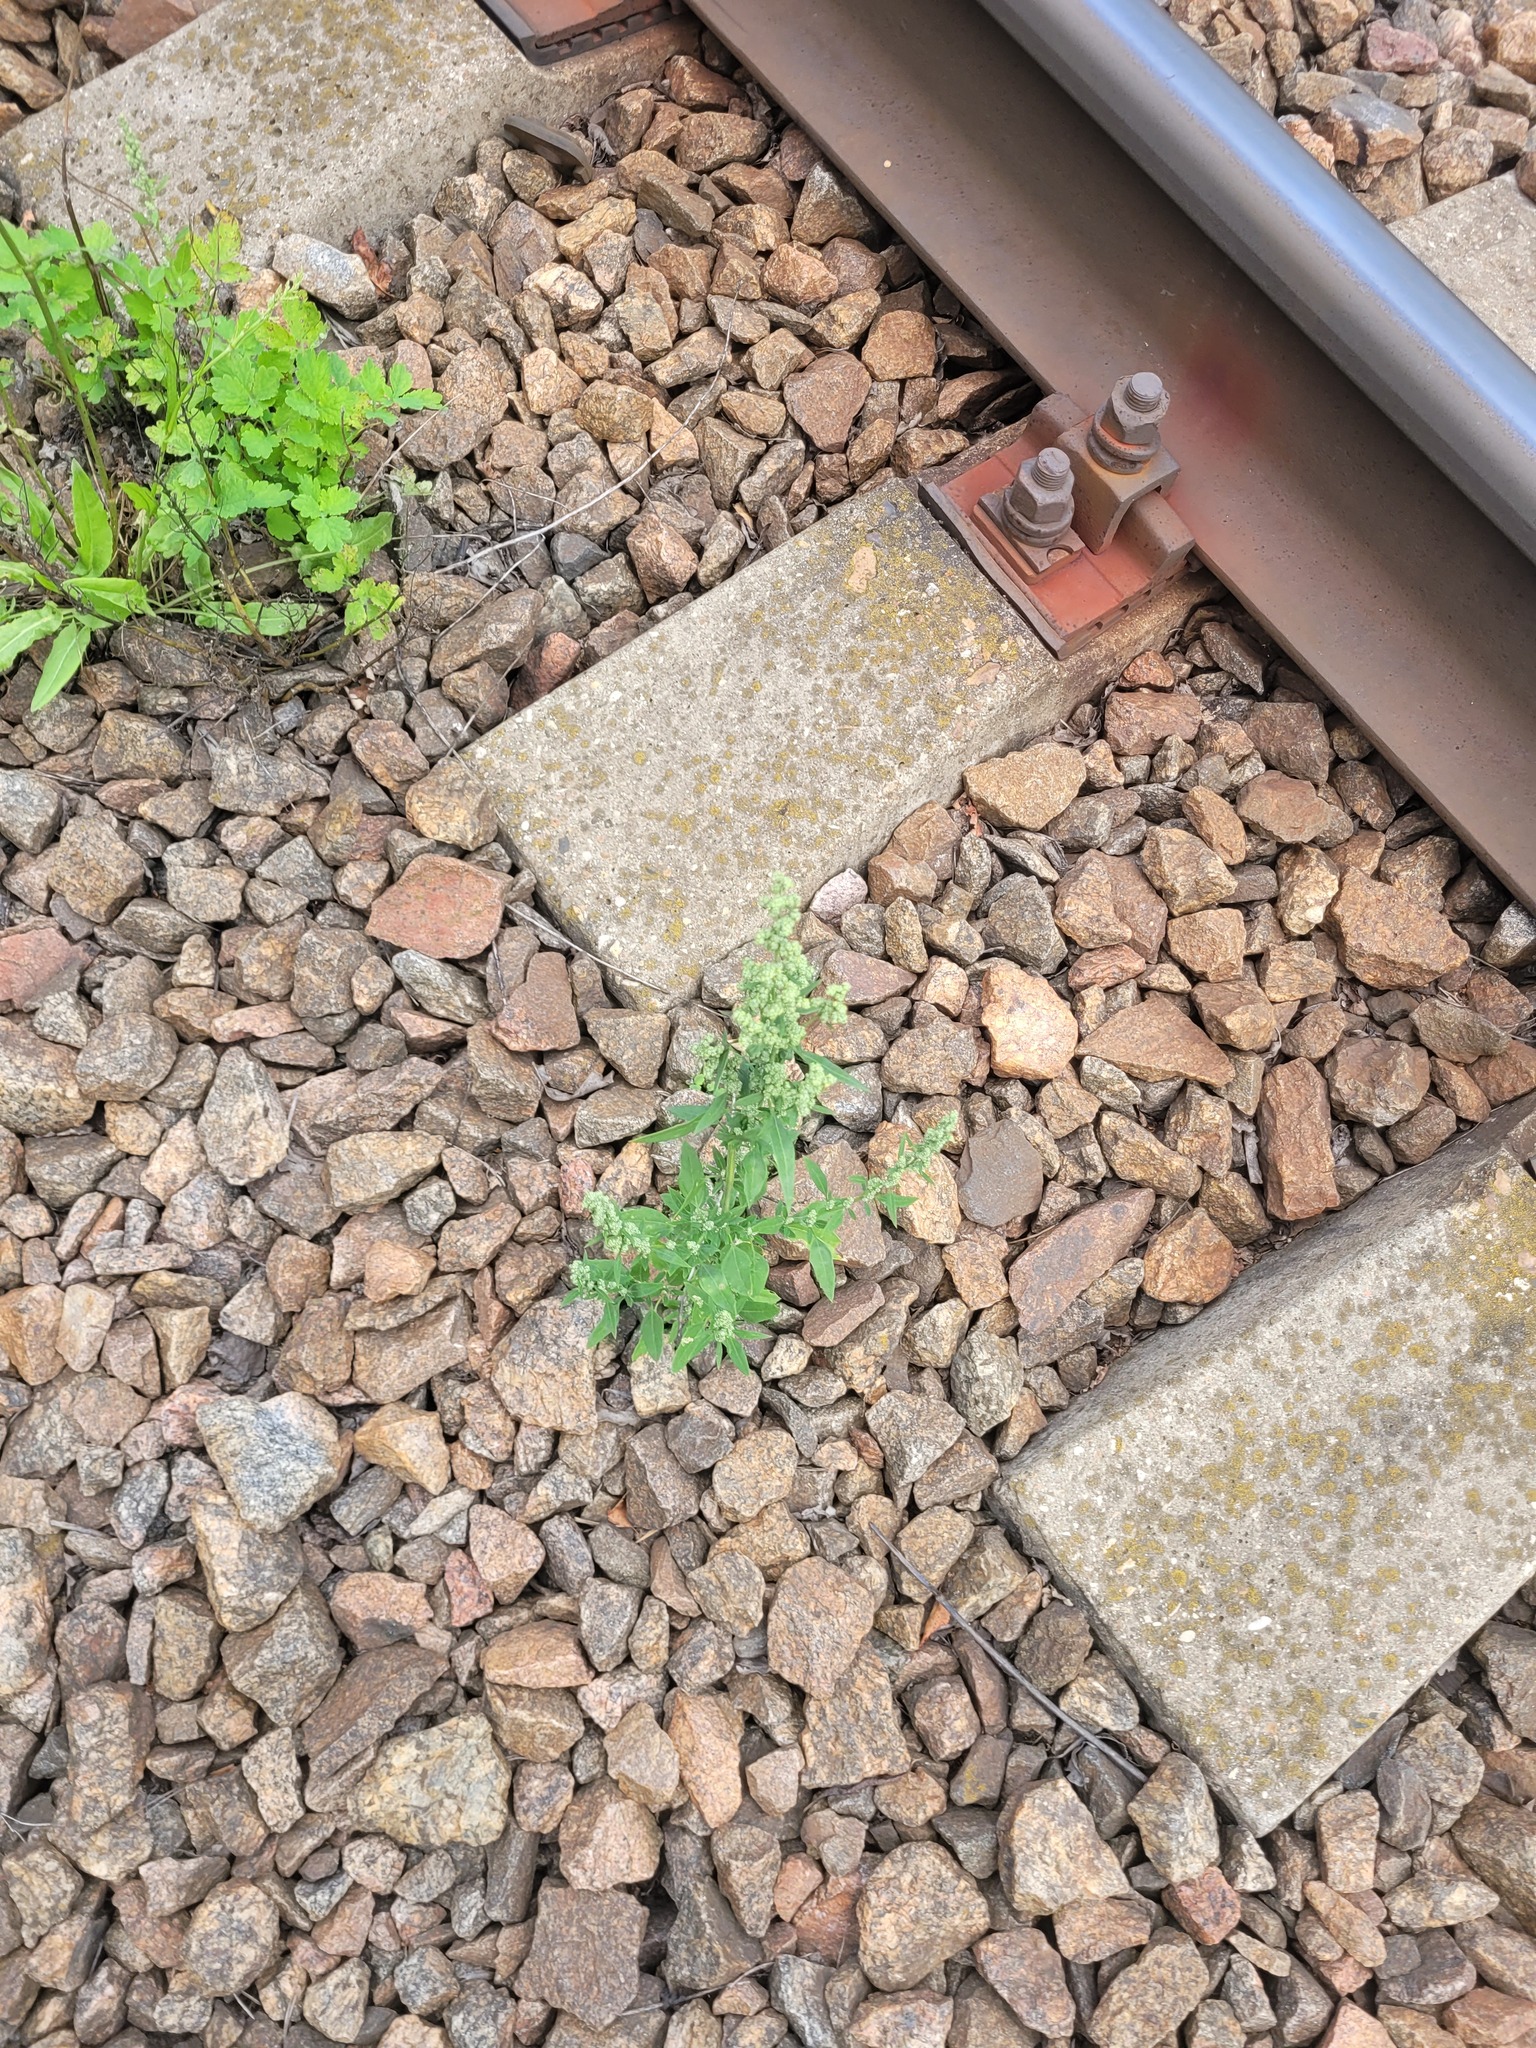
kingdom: Plantae
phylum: Tracheophyta
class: Magnoliopsida
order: Caryophyllales
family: Amaranthaceae
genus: Chenopodium
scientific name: Chenopodium album
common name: Fat-hen
